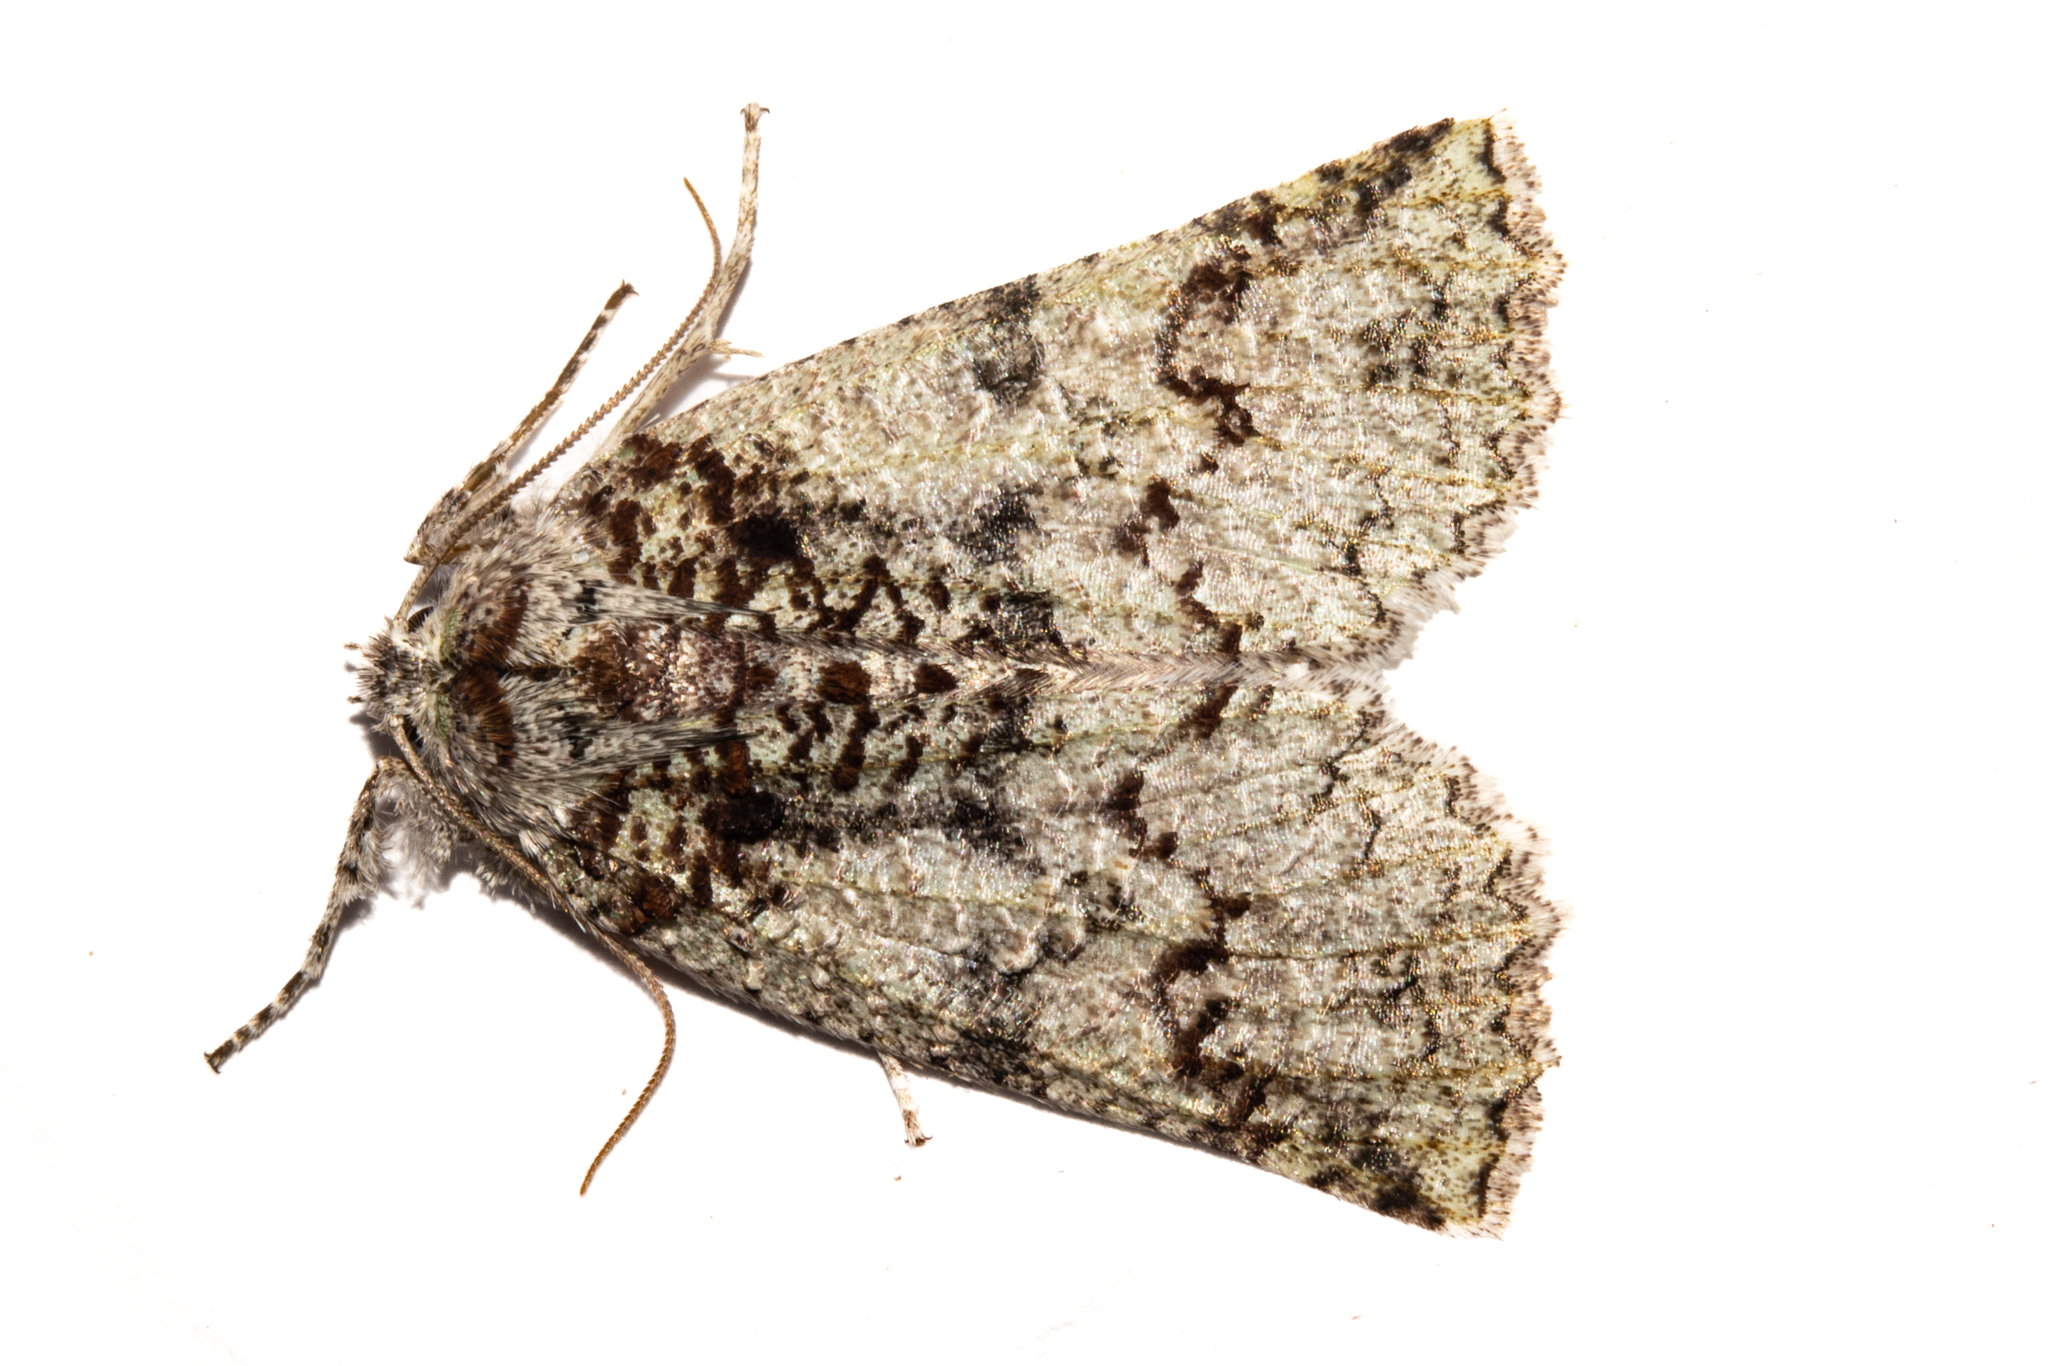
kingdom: Animalia
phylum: Arthropoda
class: Insecta
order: Lepidoptera
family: Geometridae
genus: Declana
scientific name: Declana floccosa
